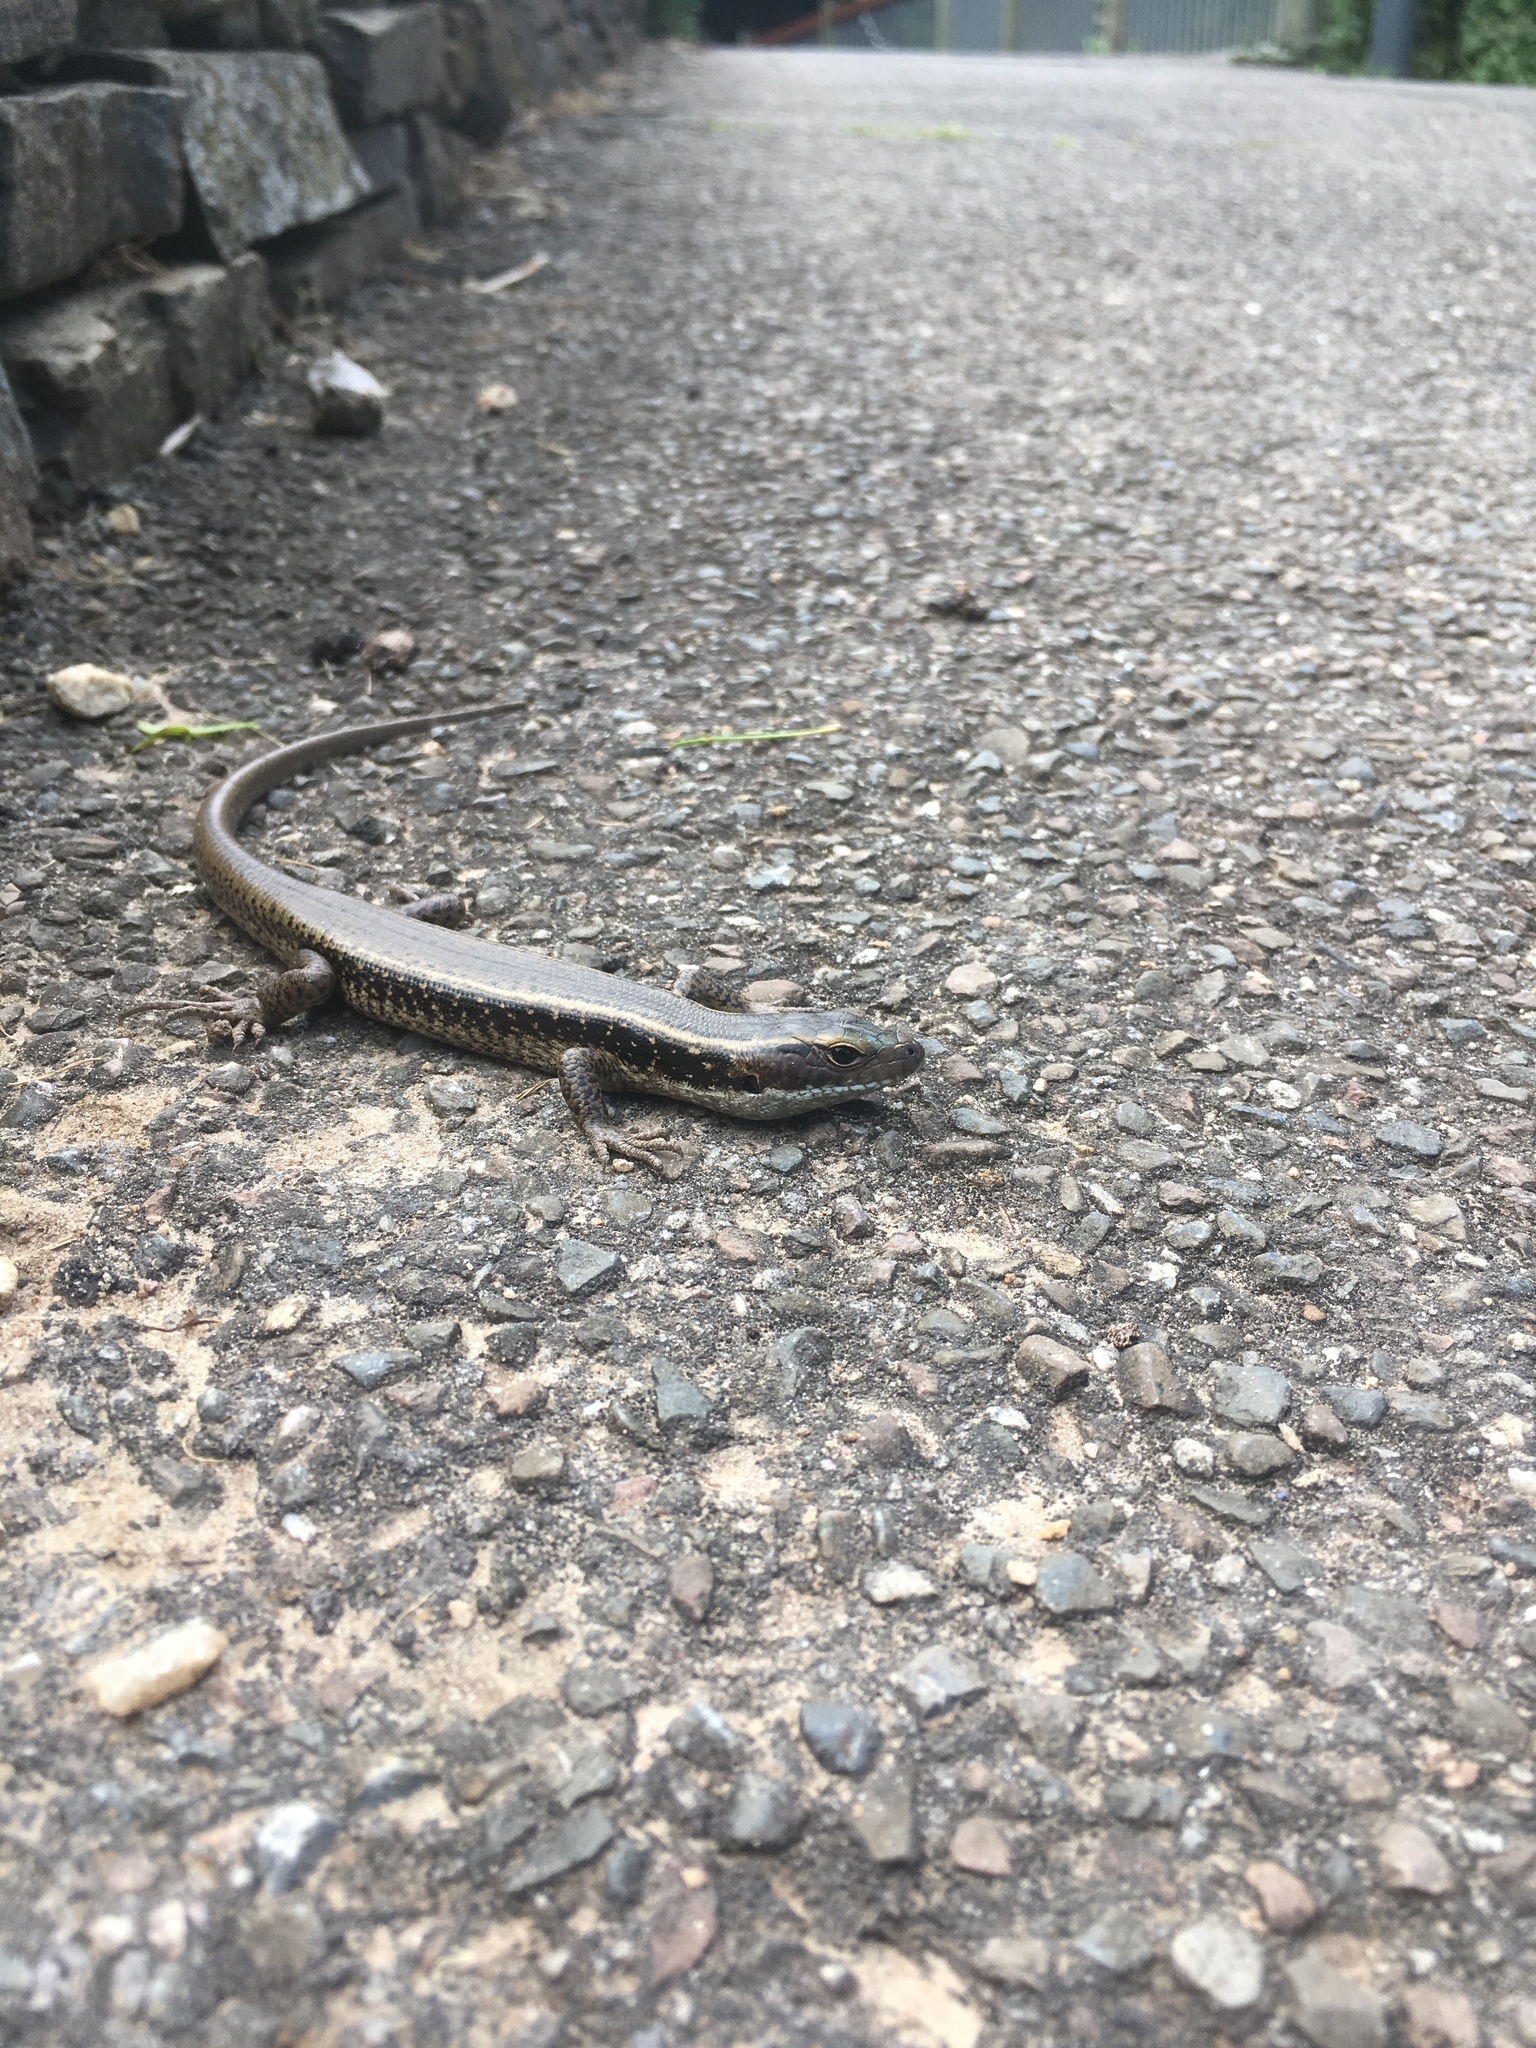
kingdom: Animalia
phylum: Chordata
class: Squamata
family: Scincidae
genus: Eulamprus
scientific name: Eulamprus quoyii
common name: Eastern water skink
